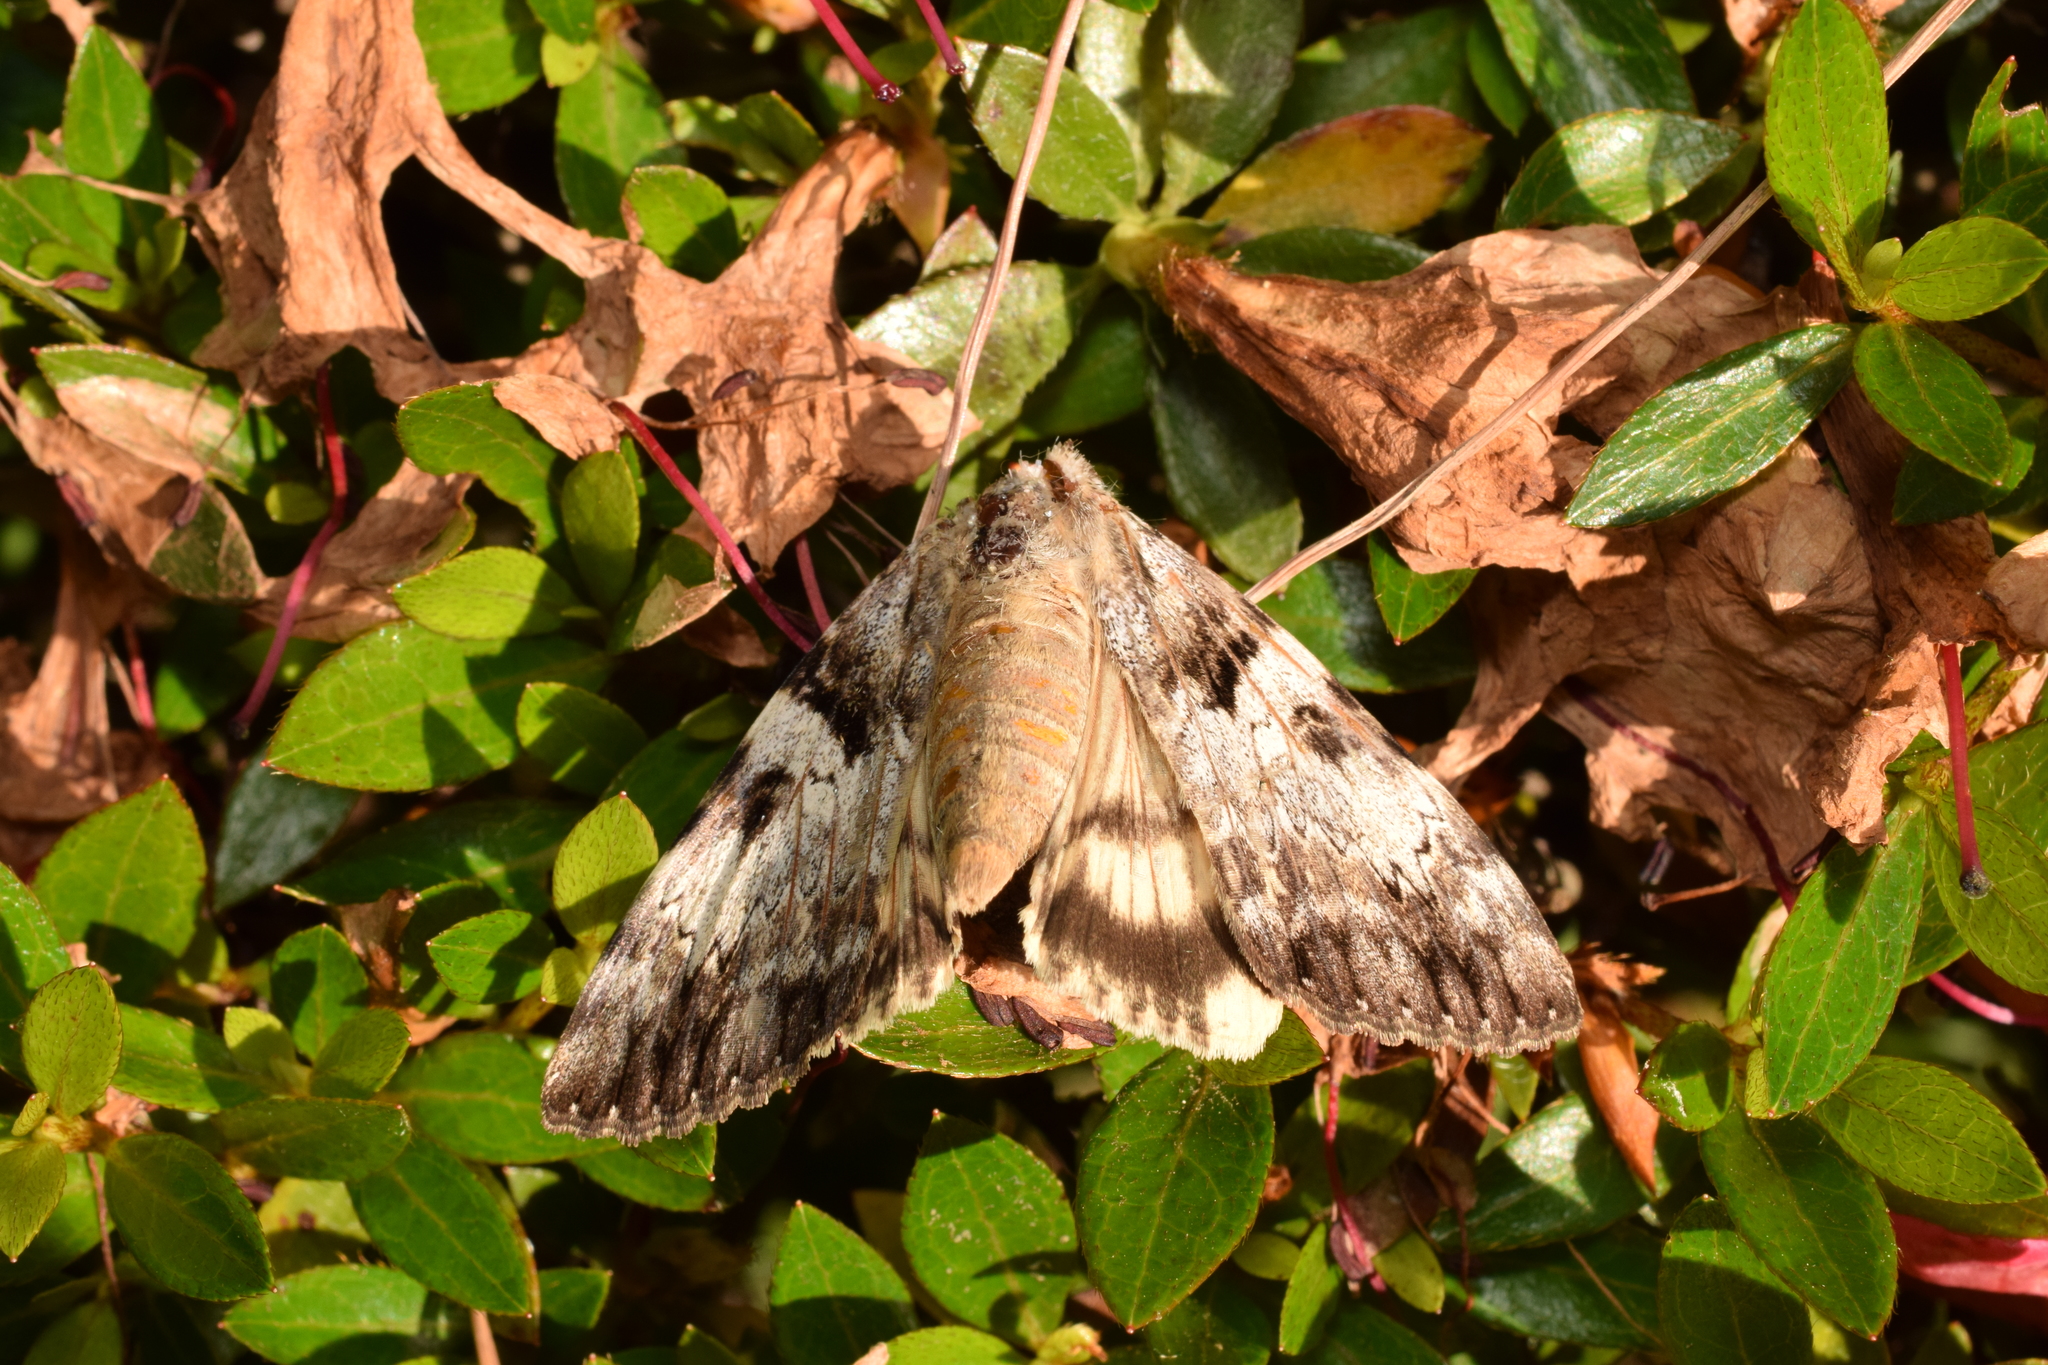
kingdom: Animalia
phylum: Arthropoda
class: Insecta
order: Lepidoptera
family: Erebidae
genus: Catocala
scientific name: Catocala intacta
